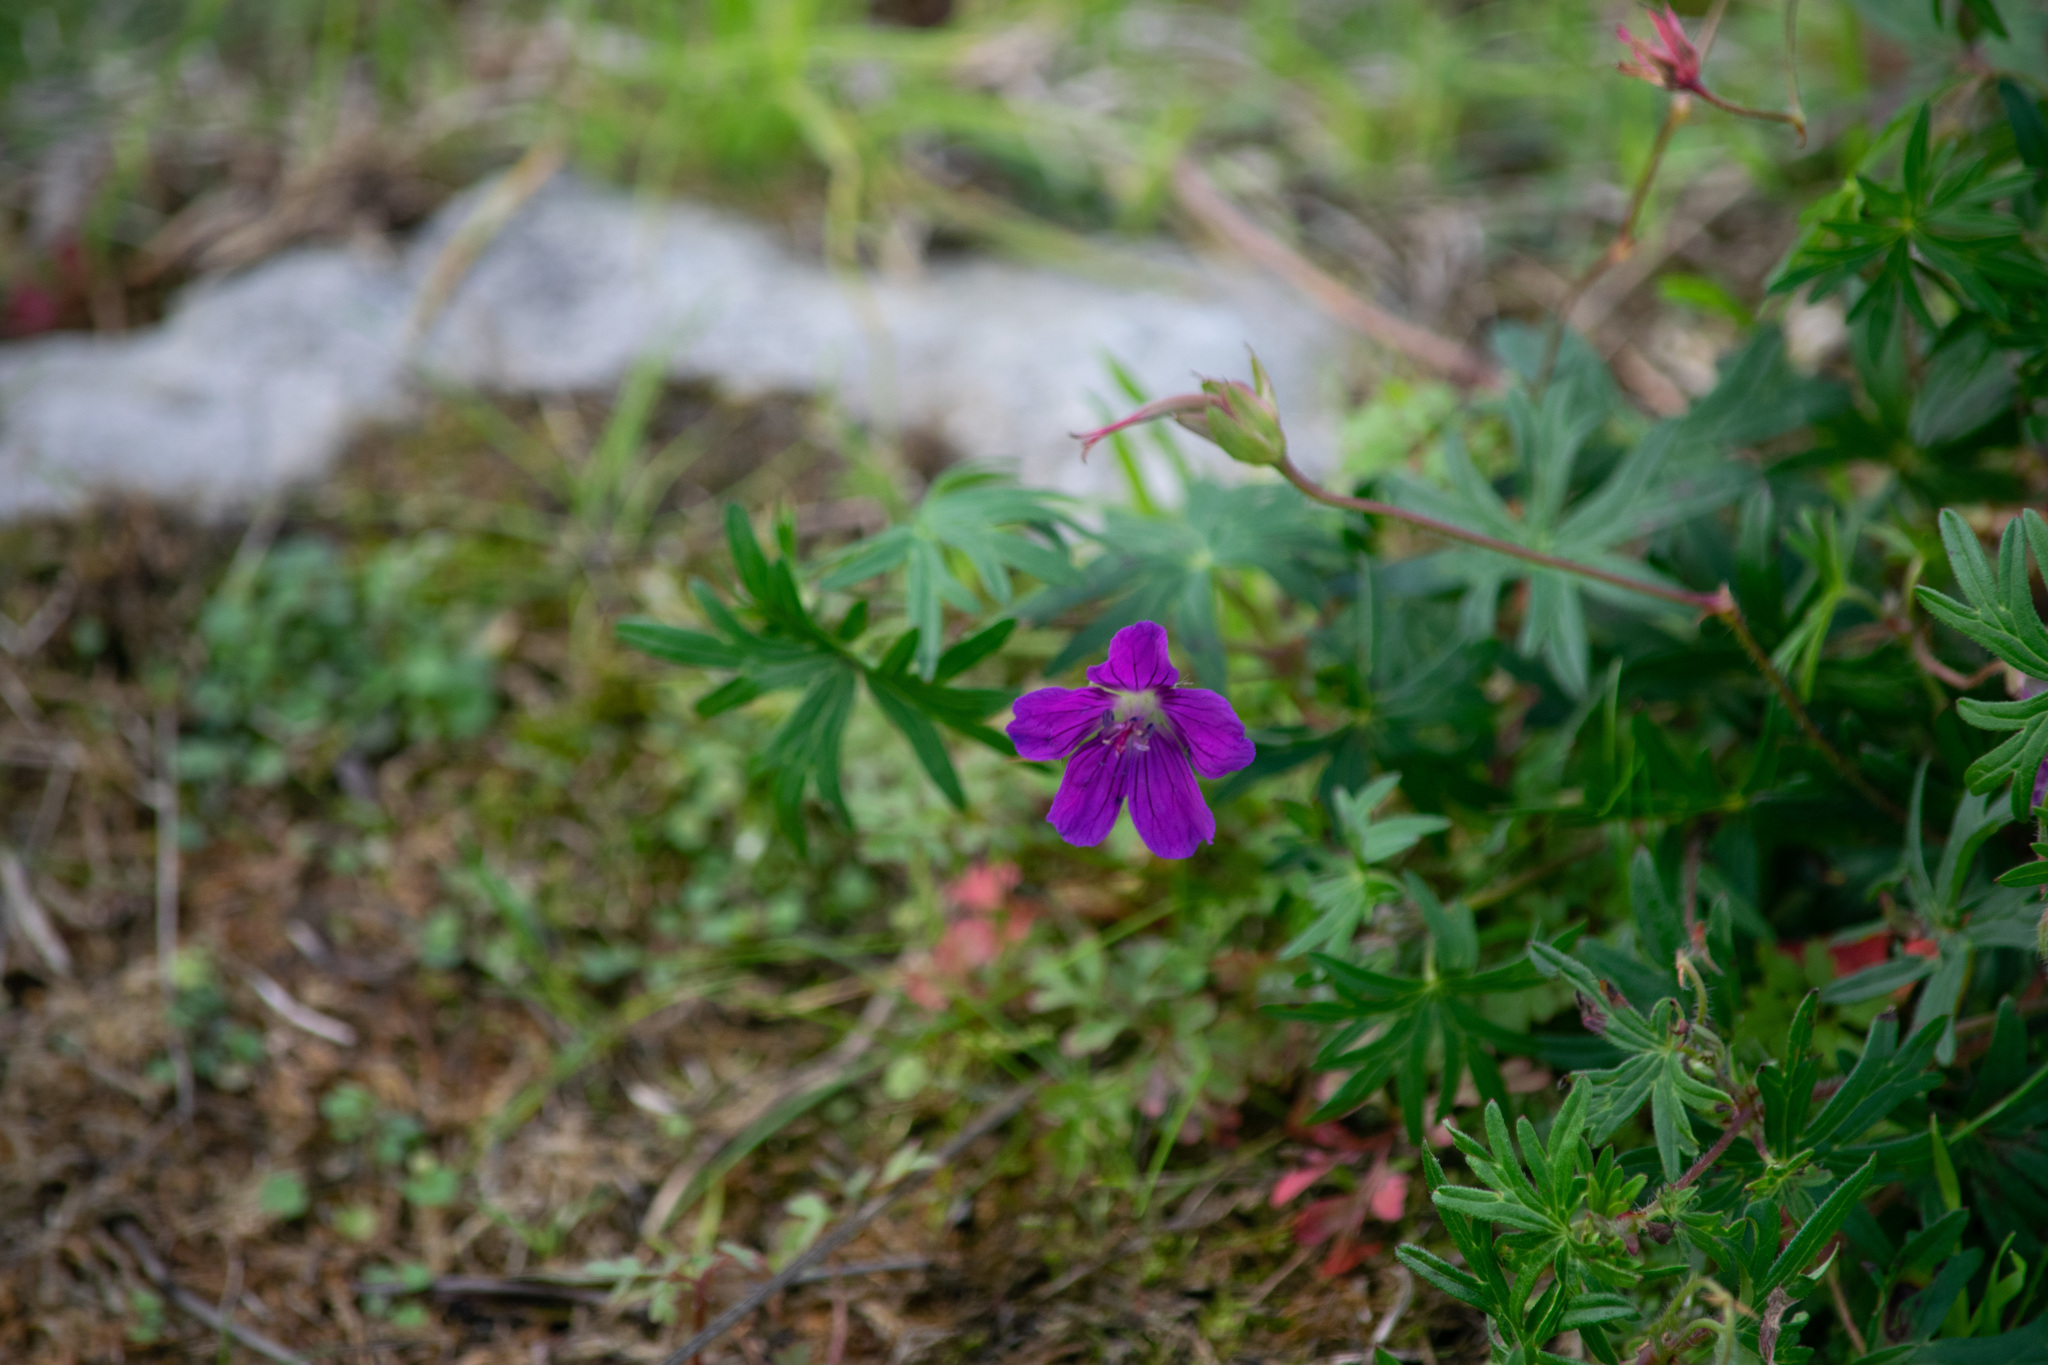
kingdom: Plantae
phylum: Tracheophyta
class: Magnoliopsida
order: Geraniales
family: Geraniaceae
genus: Geranium
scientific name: Geranium sanguineum
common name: Bloody crane's-bill
